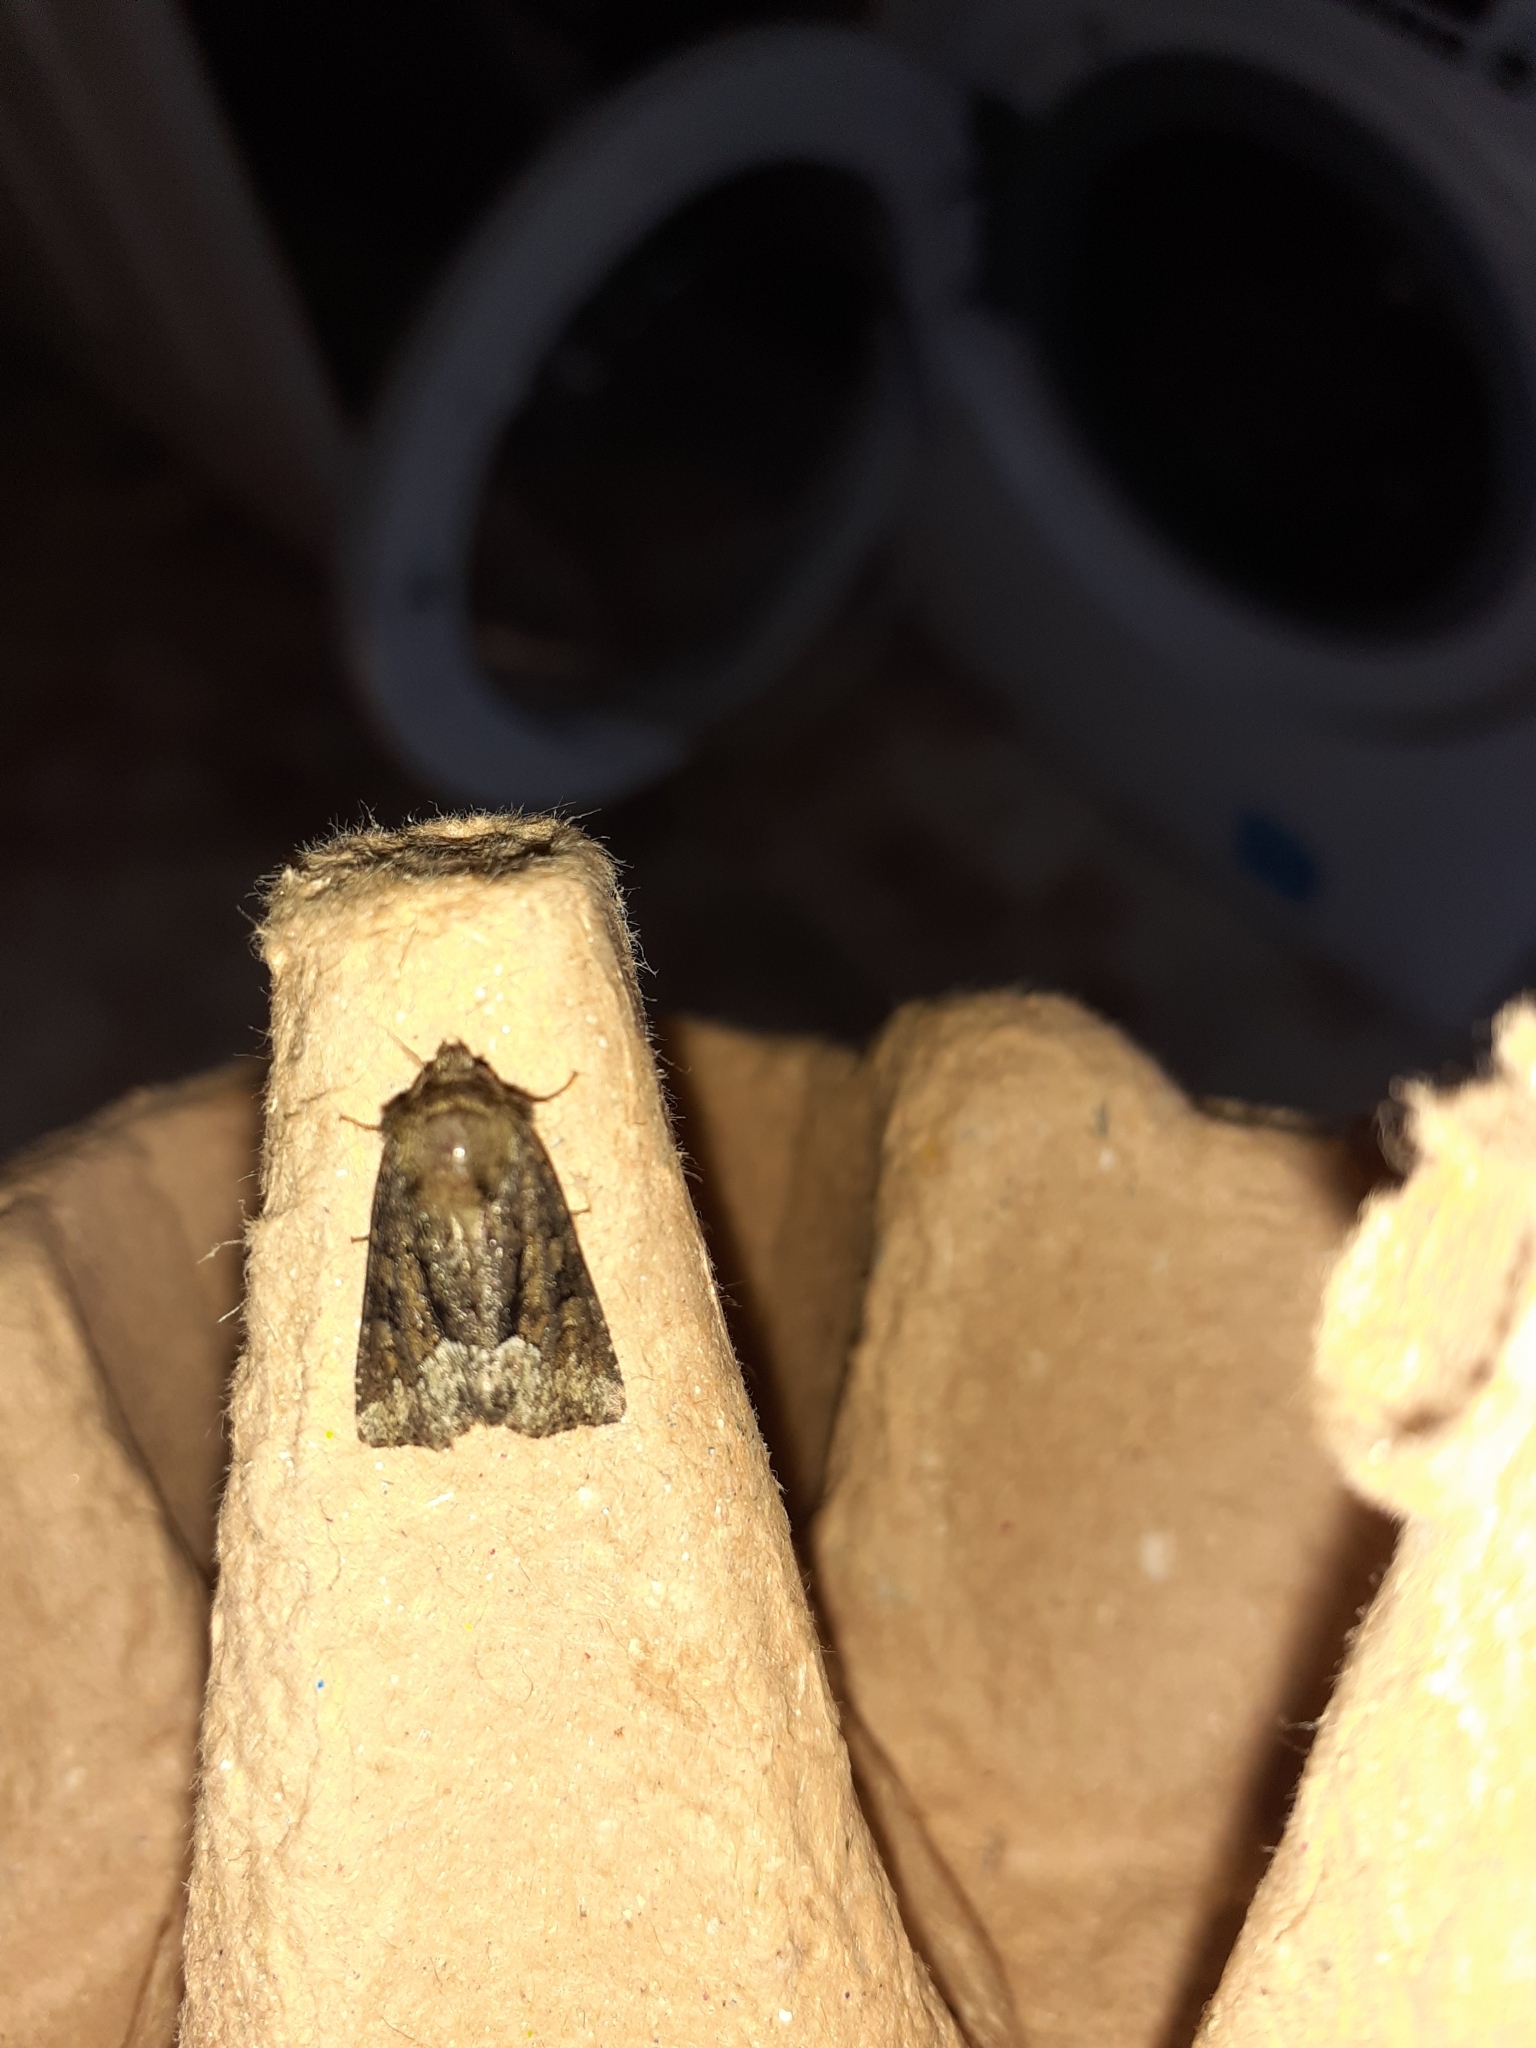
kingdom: Animalia
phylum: Arthropoda
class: Insecta
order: Lepidoptera
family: Noctuidae
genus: Oligia
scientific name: Oligia
